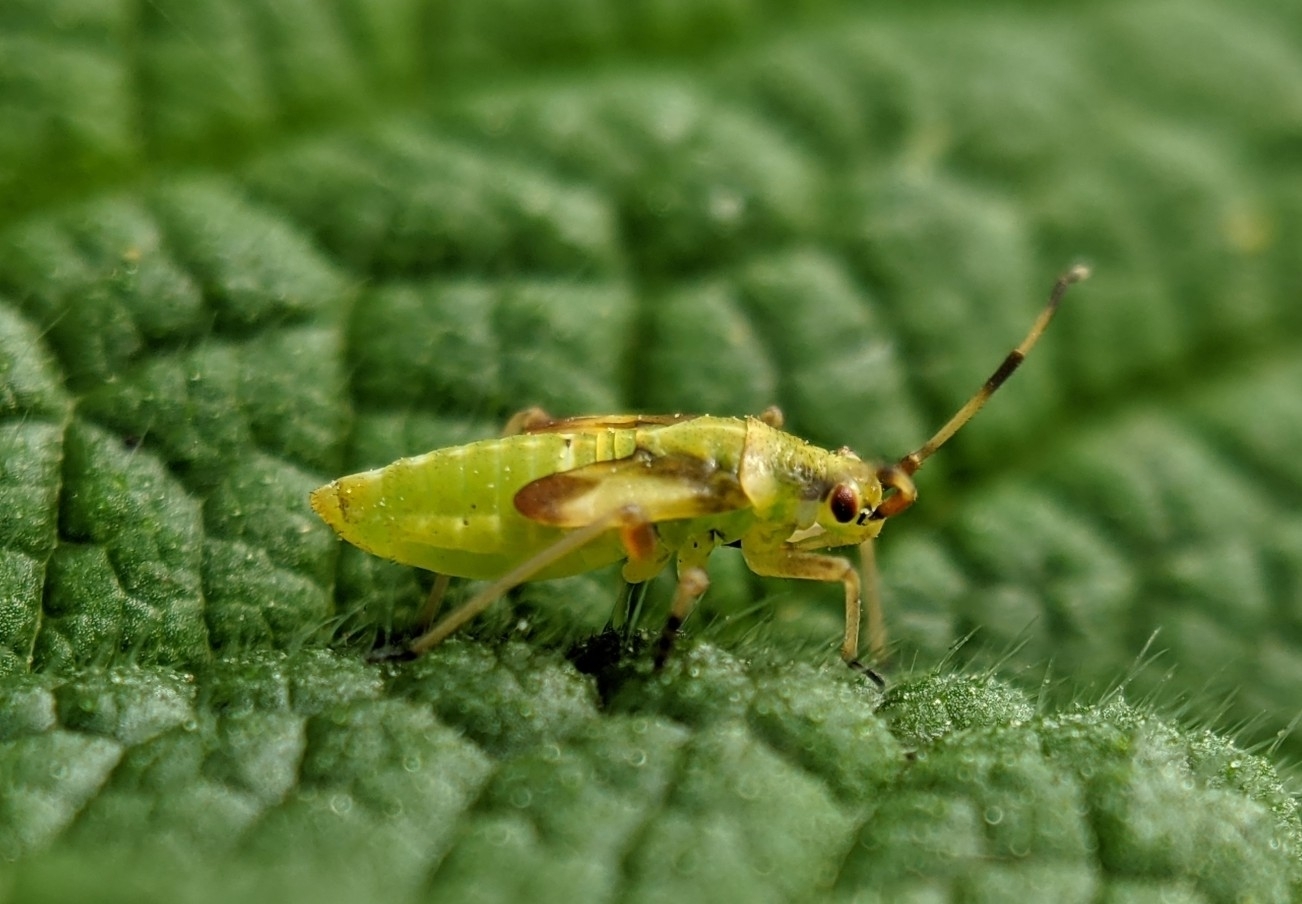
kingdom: Animalia
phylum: Arthropoda
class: Insecta
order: Hemiptera
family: Miridae
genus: Dryophilocoris
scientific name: Dryophilocoris flavoquadrimaculatus
